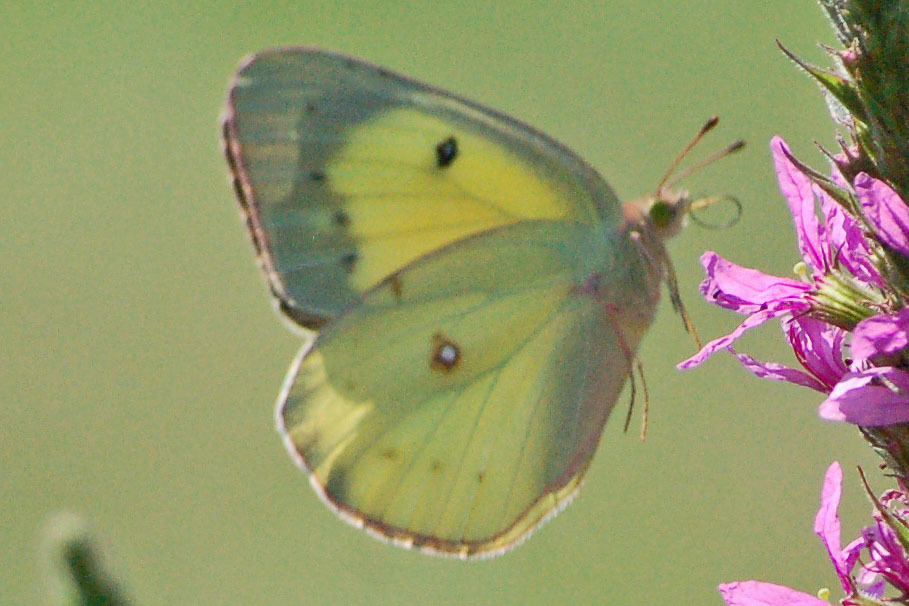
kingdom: Animalia
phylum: Arthropoda
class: Insecta
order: Lepidoptera
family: Pieridae
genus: Colias
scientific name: Colias philodice
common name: Clouded sulphur
